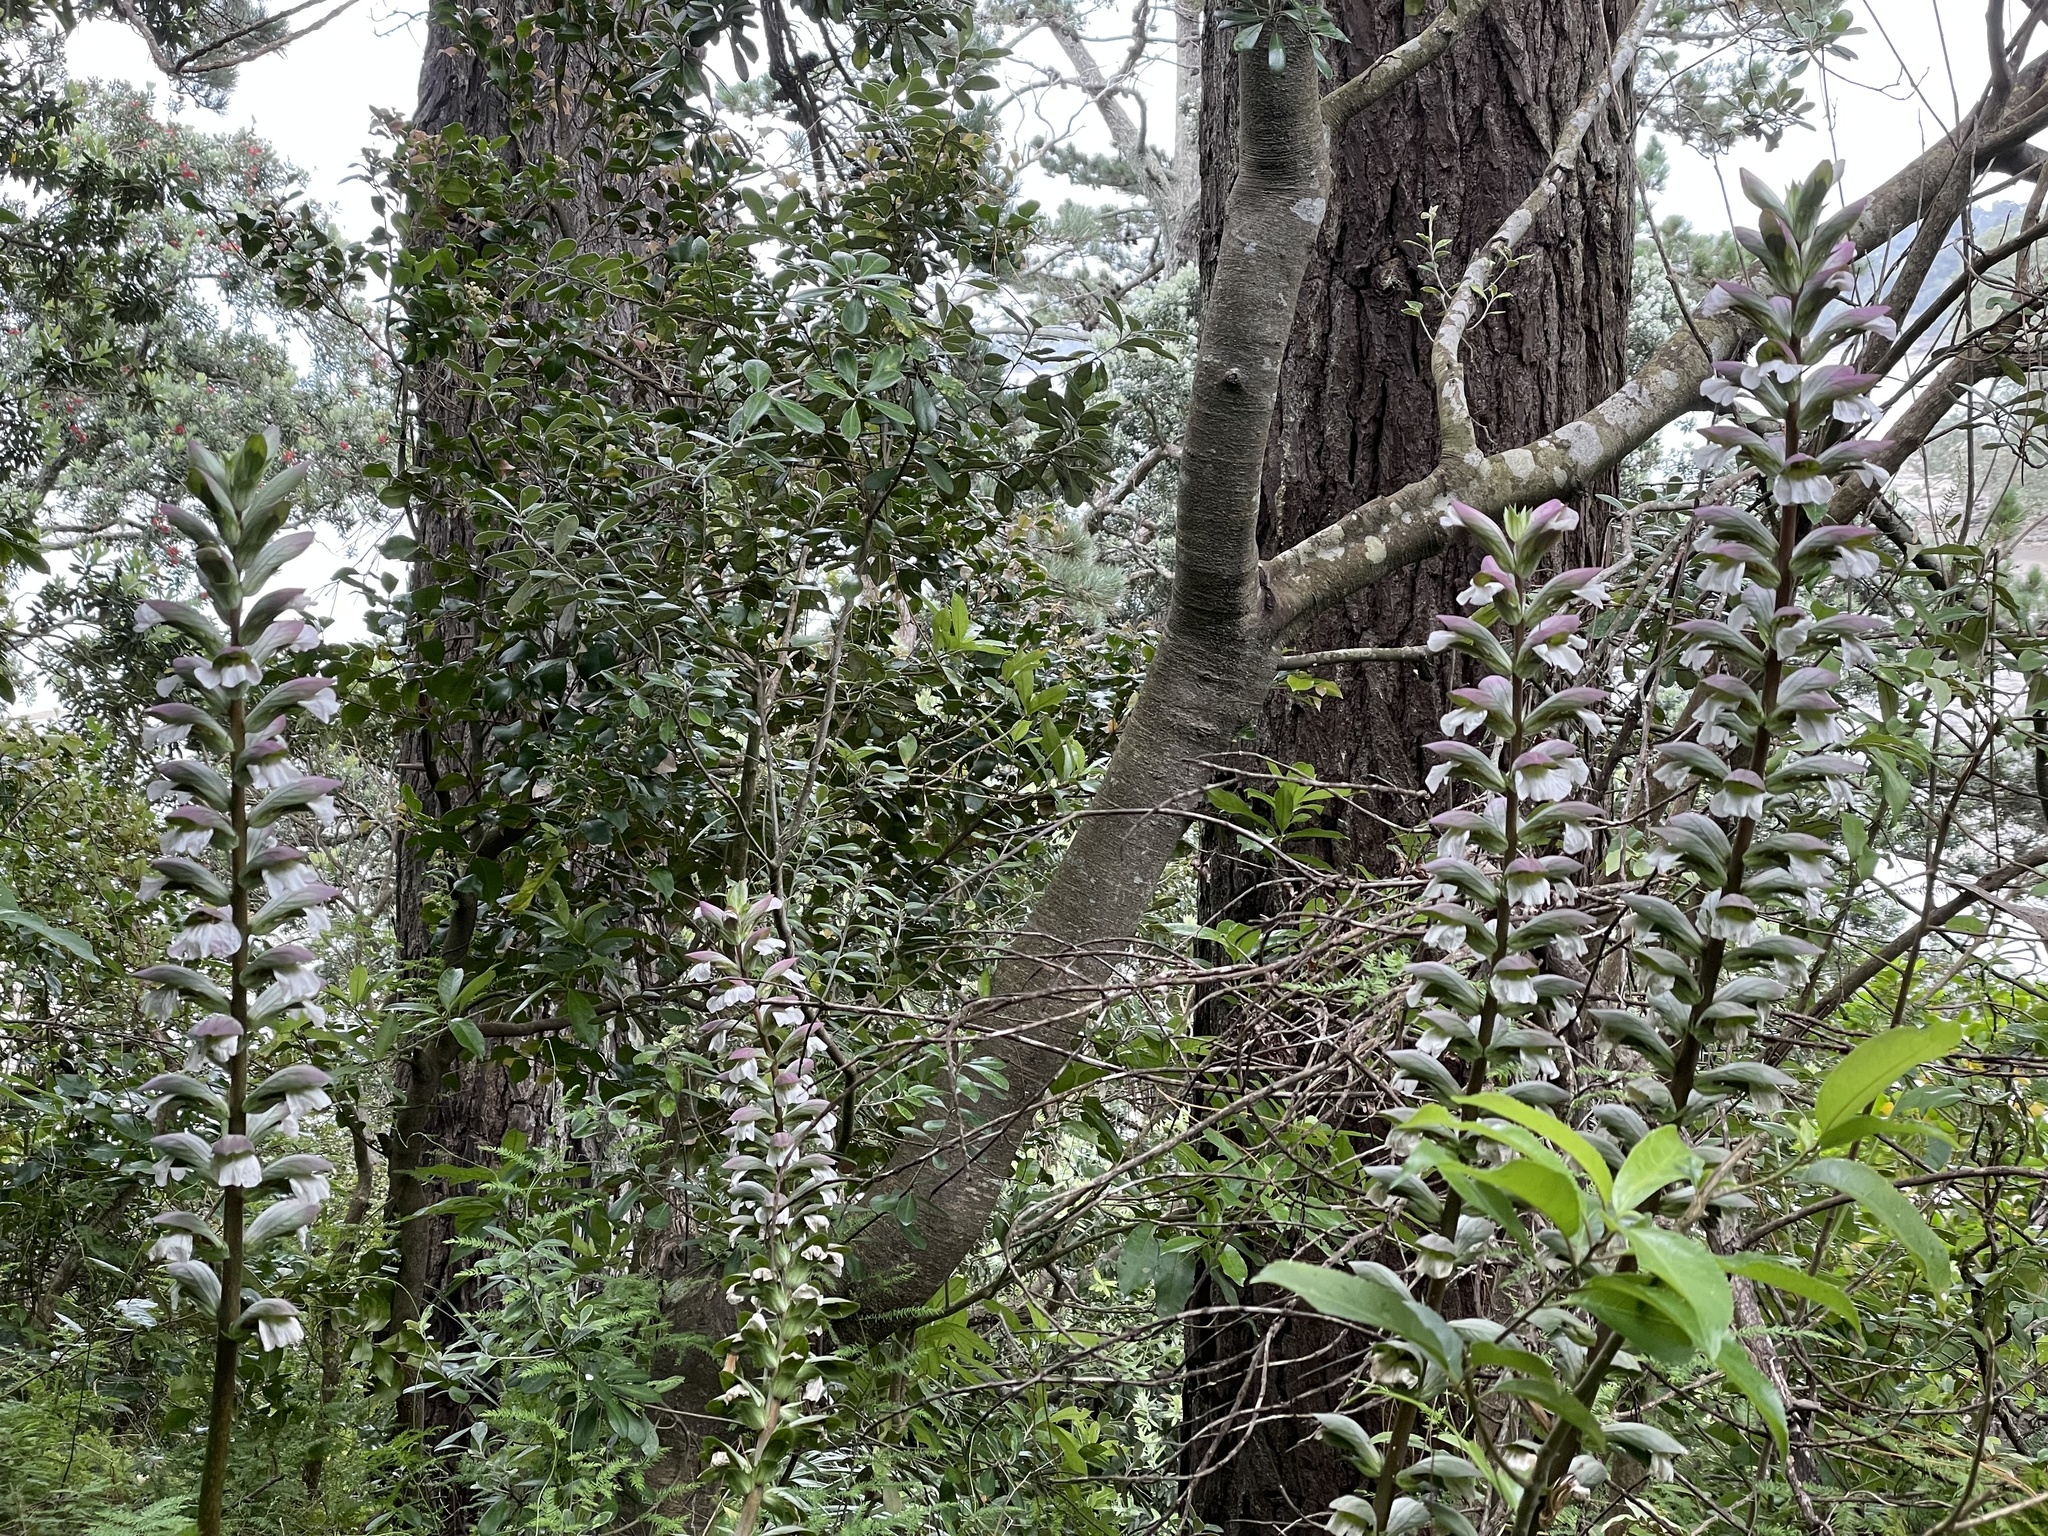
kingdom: Plantae
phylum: Tracheophyta
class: Magnoliopsida
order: Lamiales
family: Acanthaceae
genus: Acanthus
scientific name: Acanthus mollis
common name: Bear's-breech
